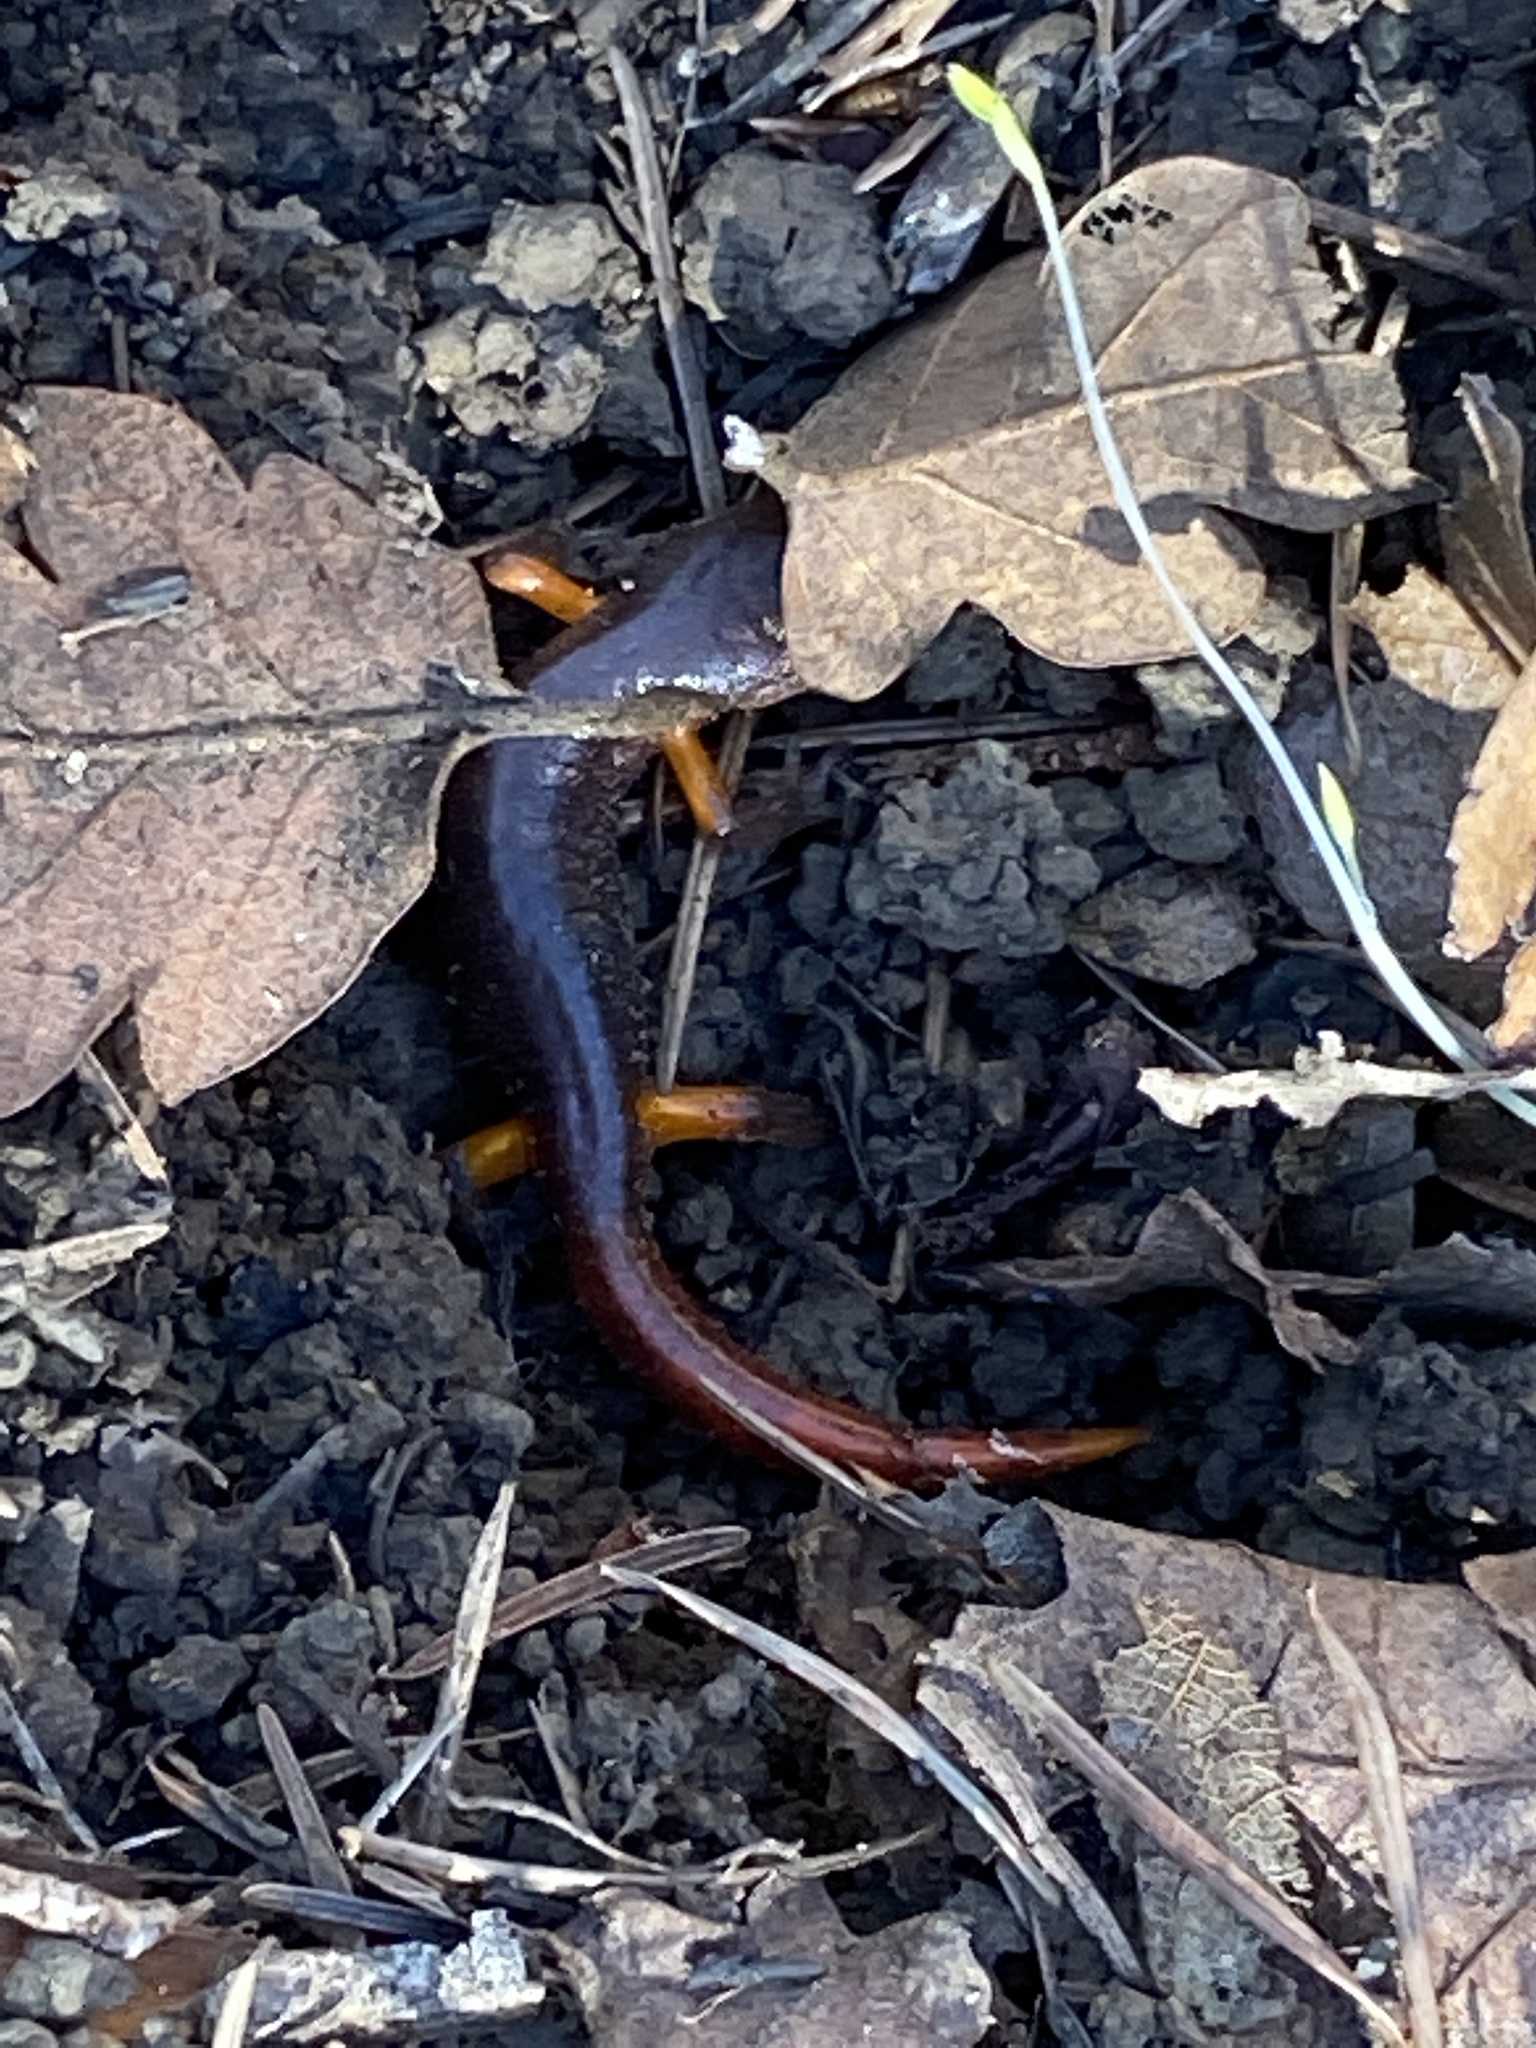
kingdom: Animalia
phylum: Chordata
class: Amphibia
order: Caudata
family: Plethodontidae
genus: Ensatina
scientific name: Ensatina eschscholtzii
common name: Ensatina
